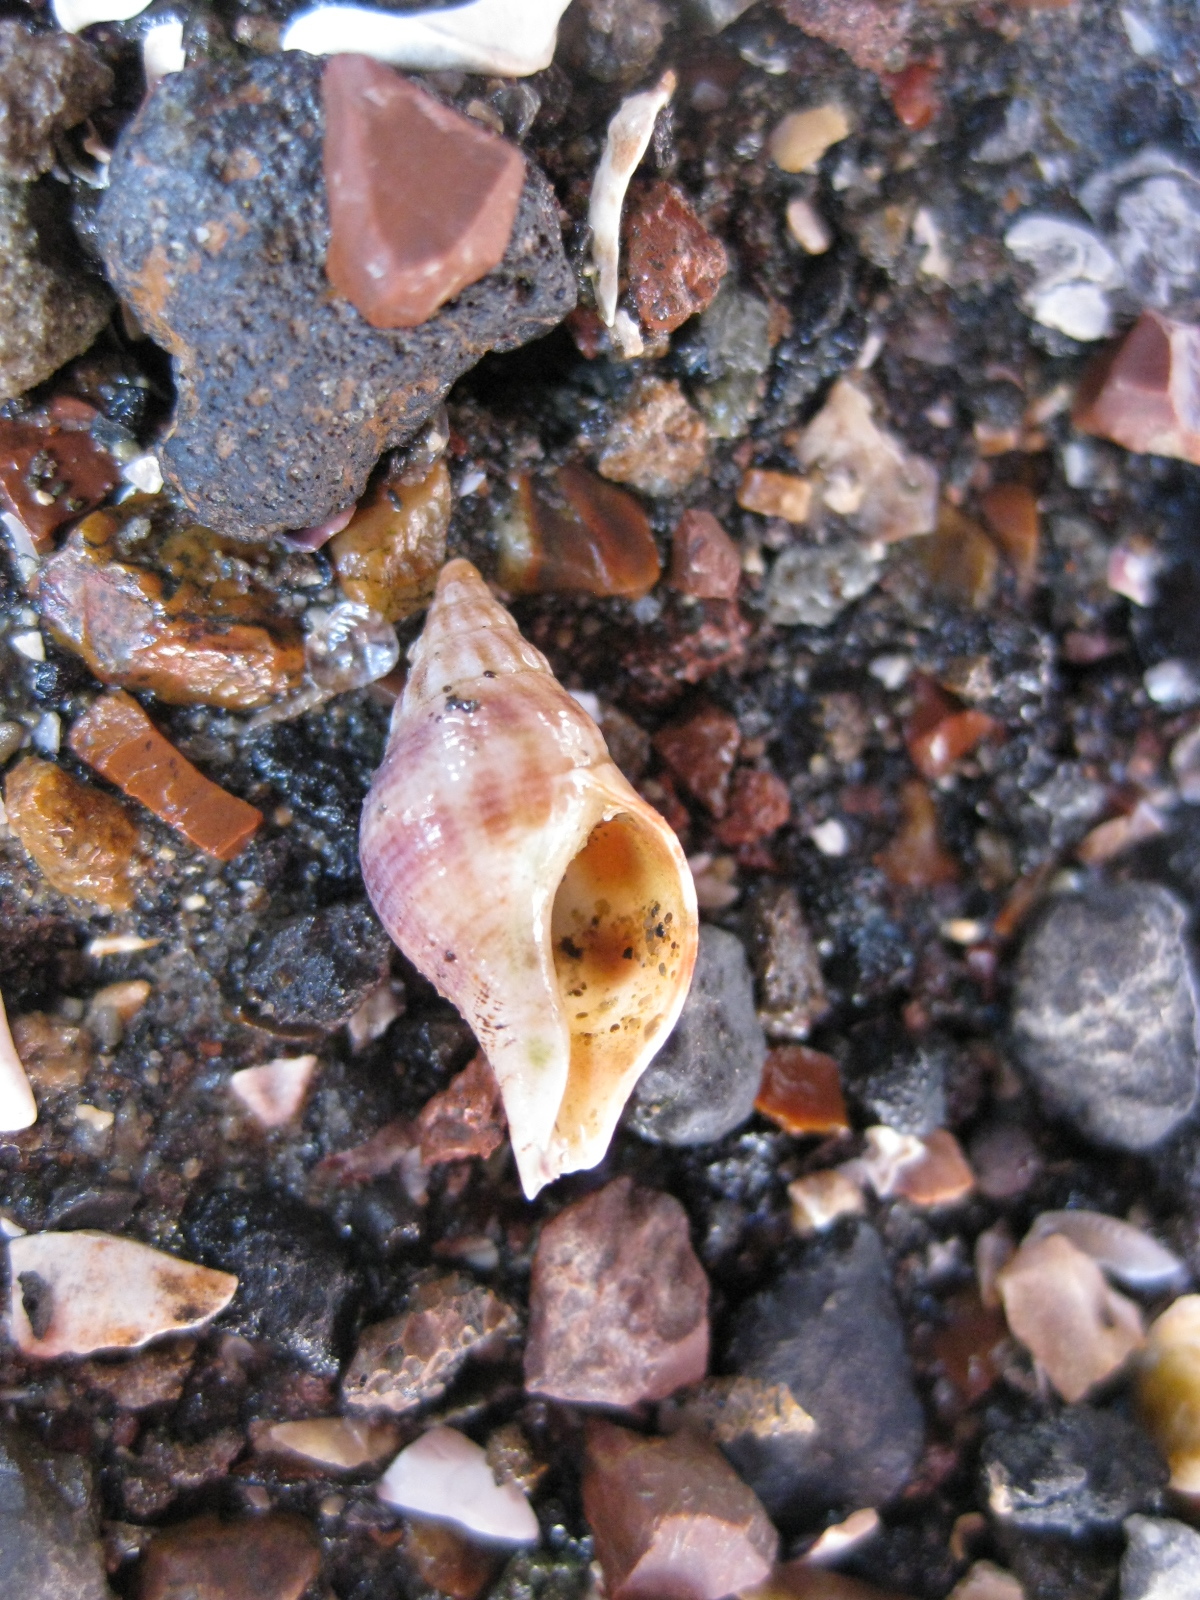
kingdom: Animalia
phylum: Mollusca
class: Gastropoda
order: Neogastropoda
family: Tudiclidae
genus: Buccinulum
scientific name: Buccinulum vittatum
